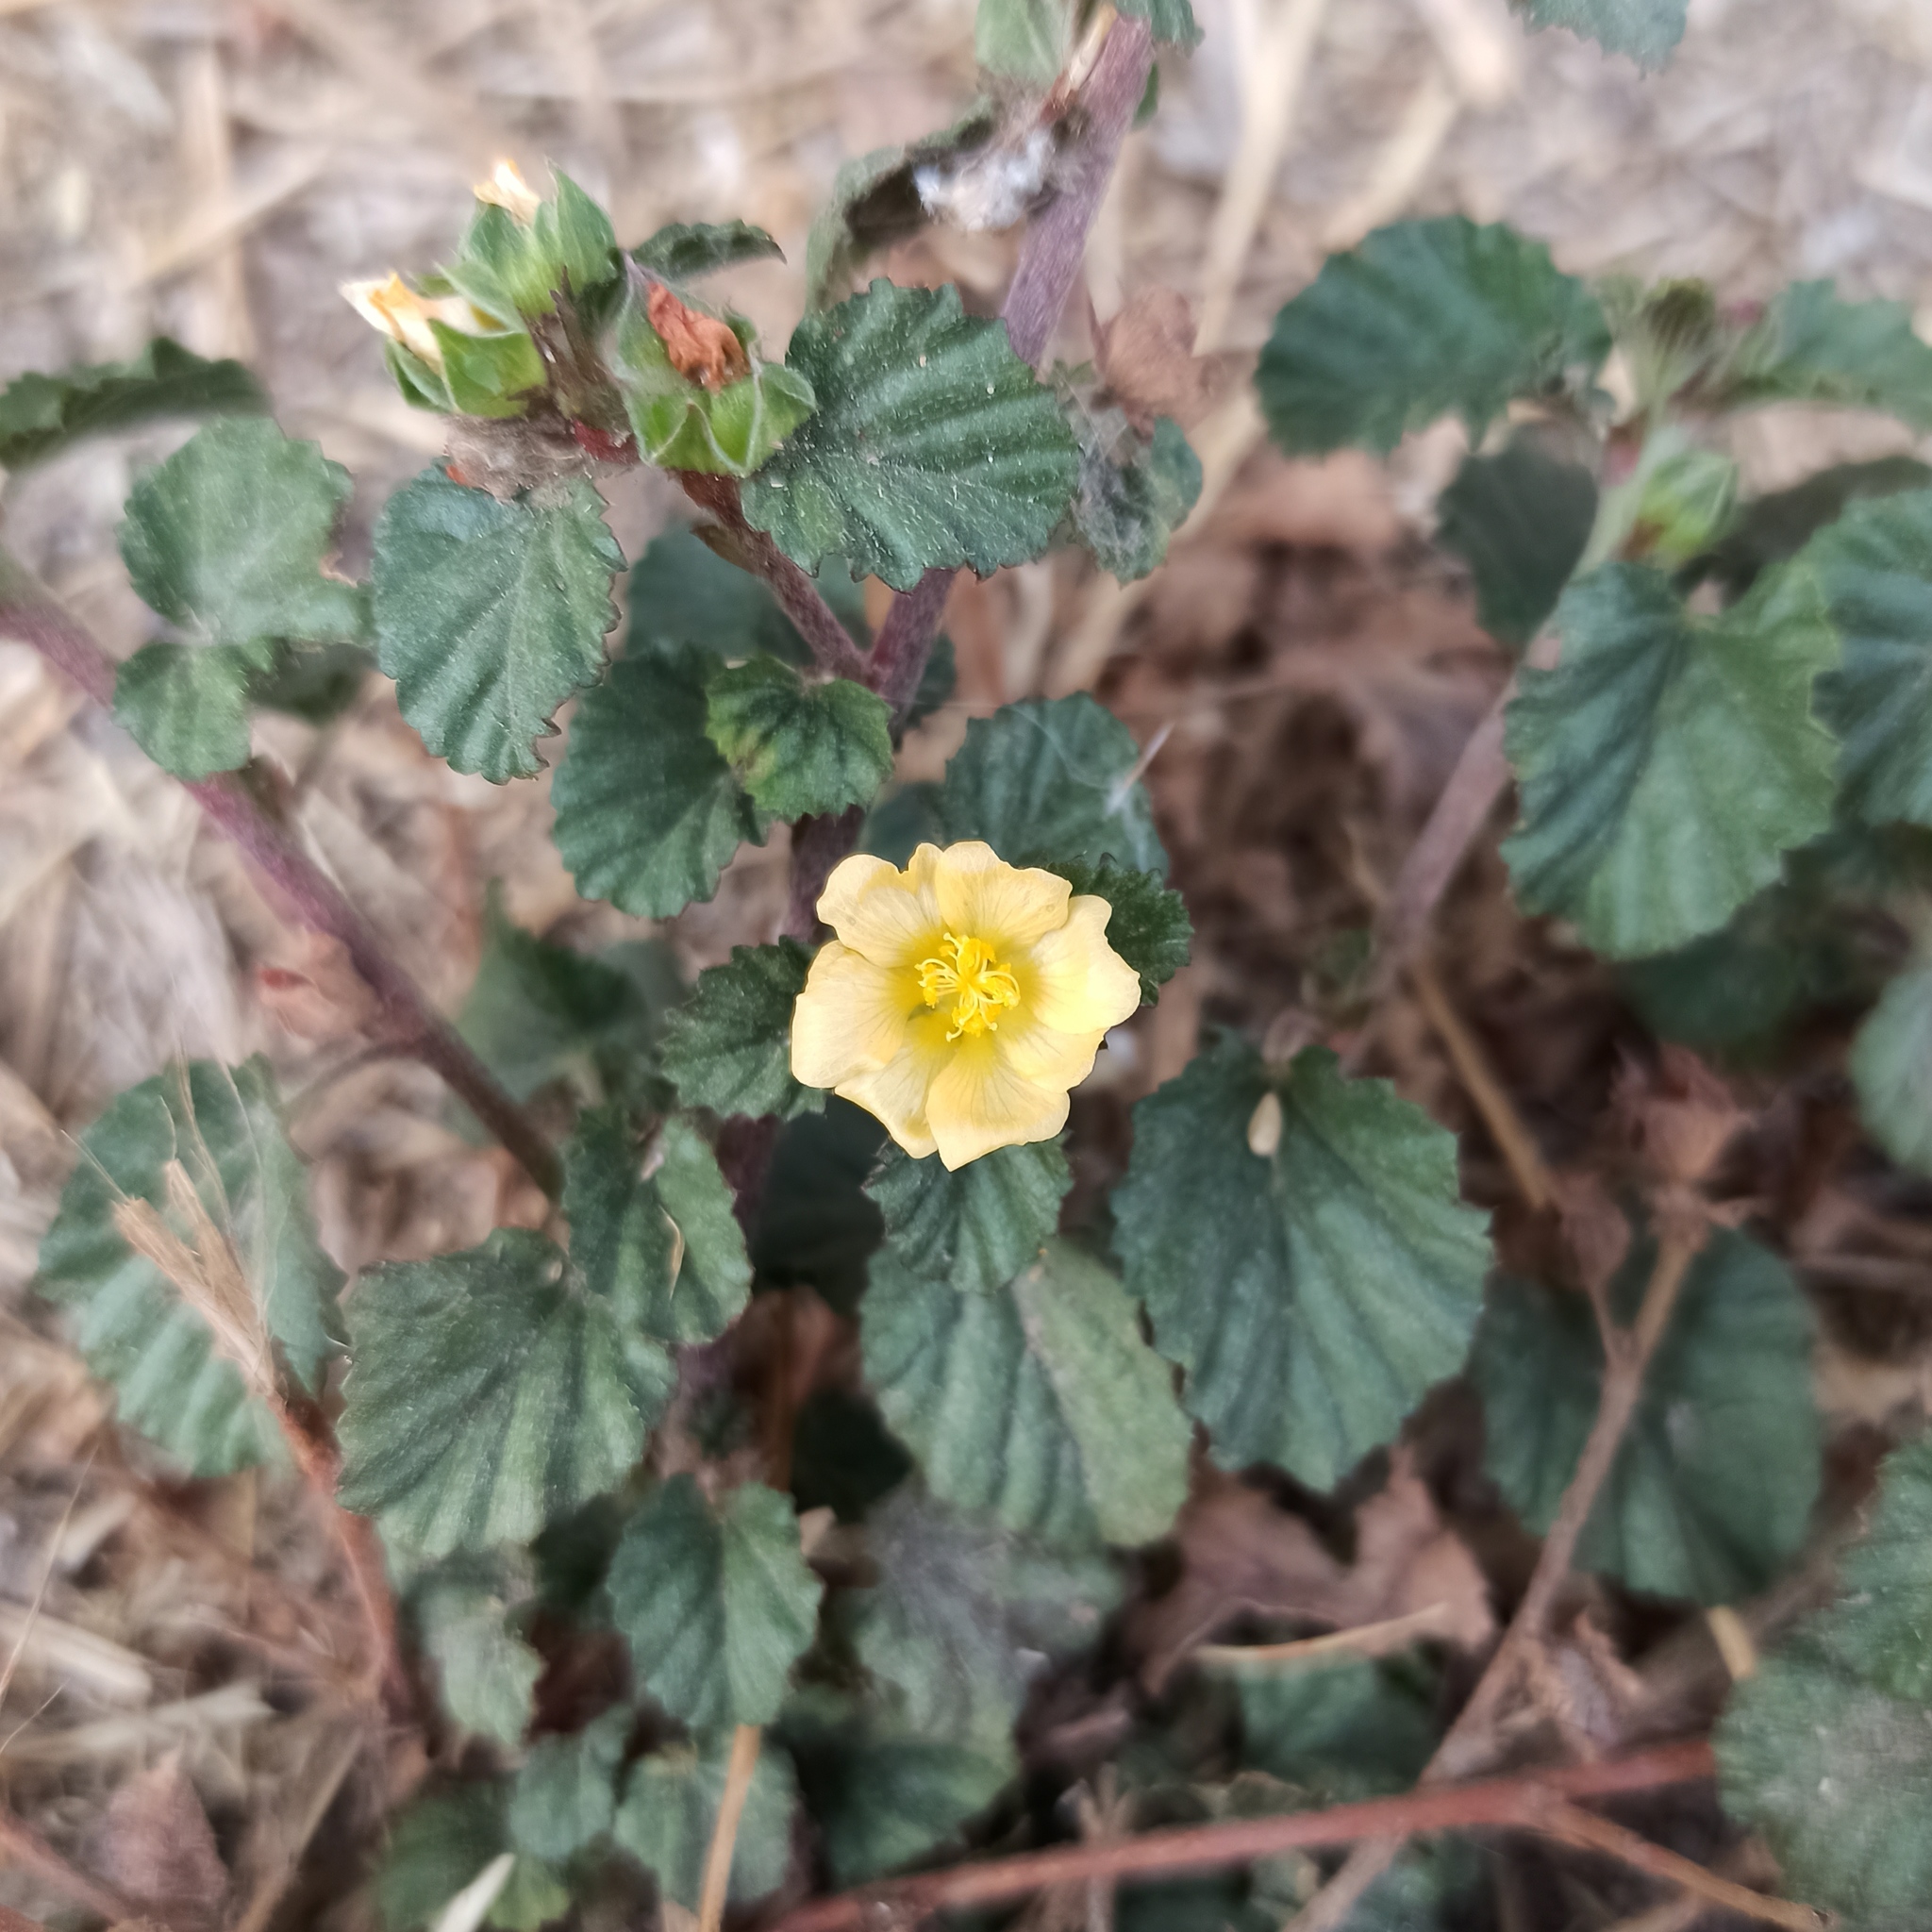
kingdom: Plantae
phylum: Tracheophyta
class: Magnoliopsida
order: Malvales
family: Malvaceae
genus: Sida
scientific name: Sida rhombifolia
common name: Queensland-hemp
